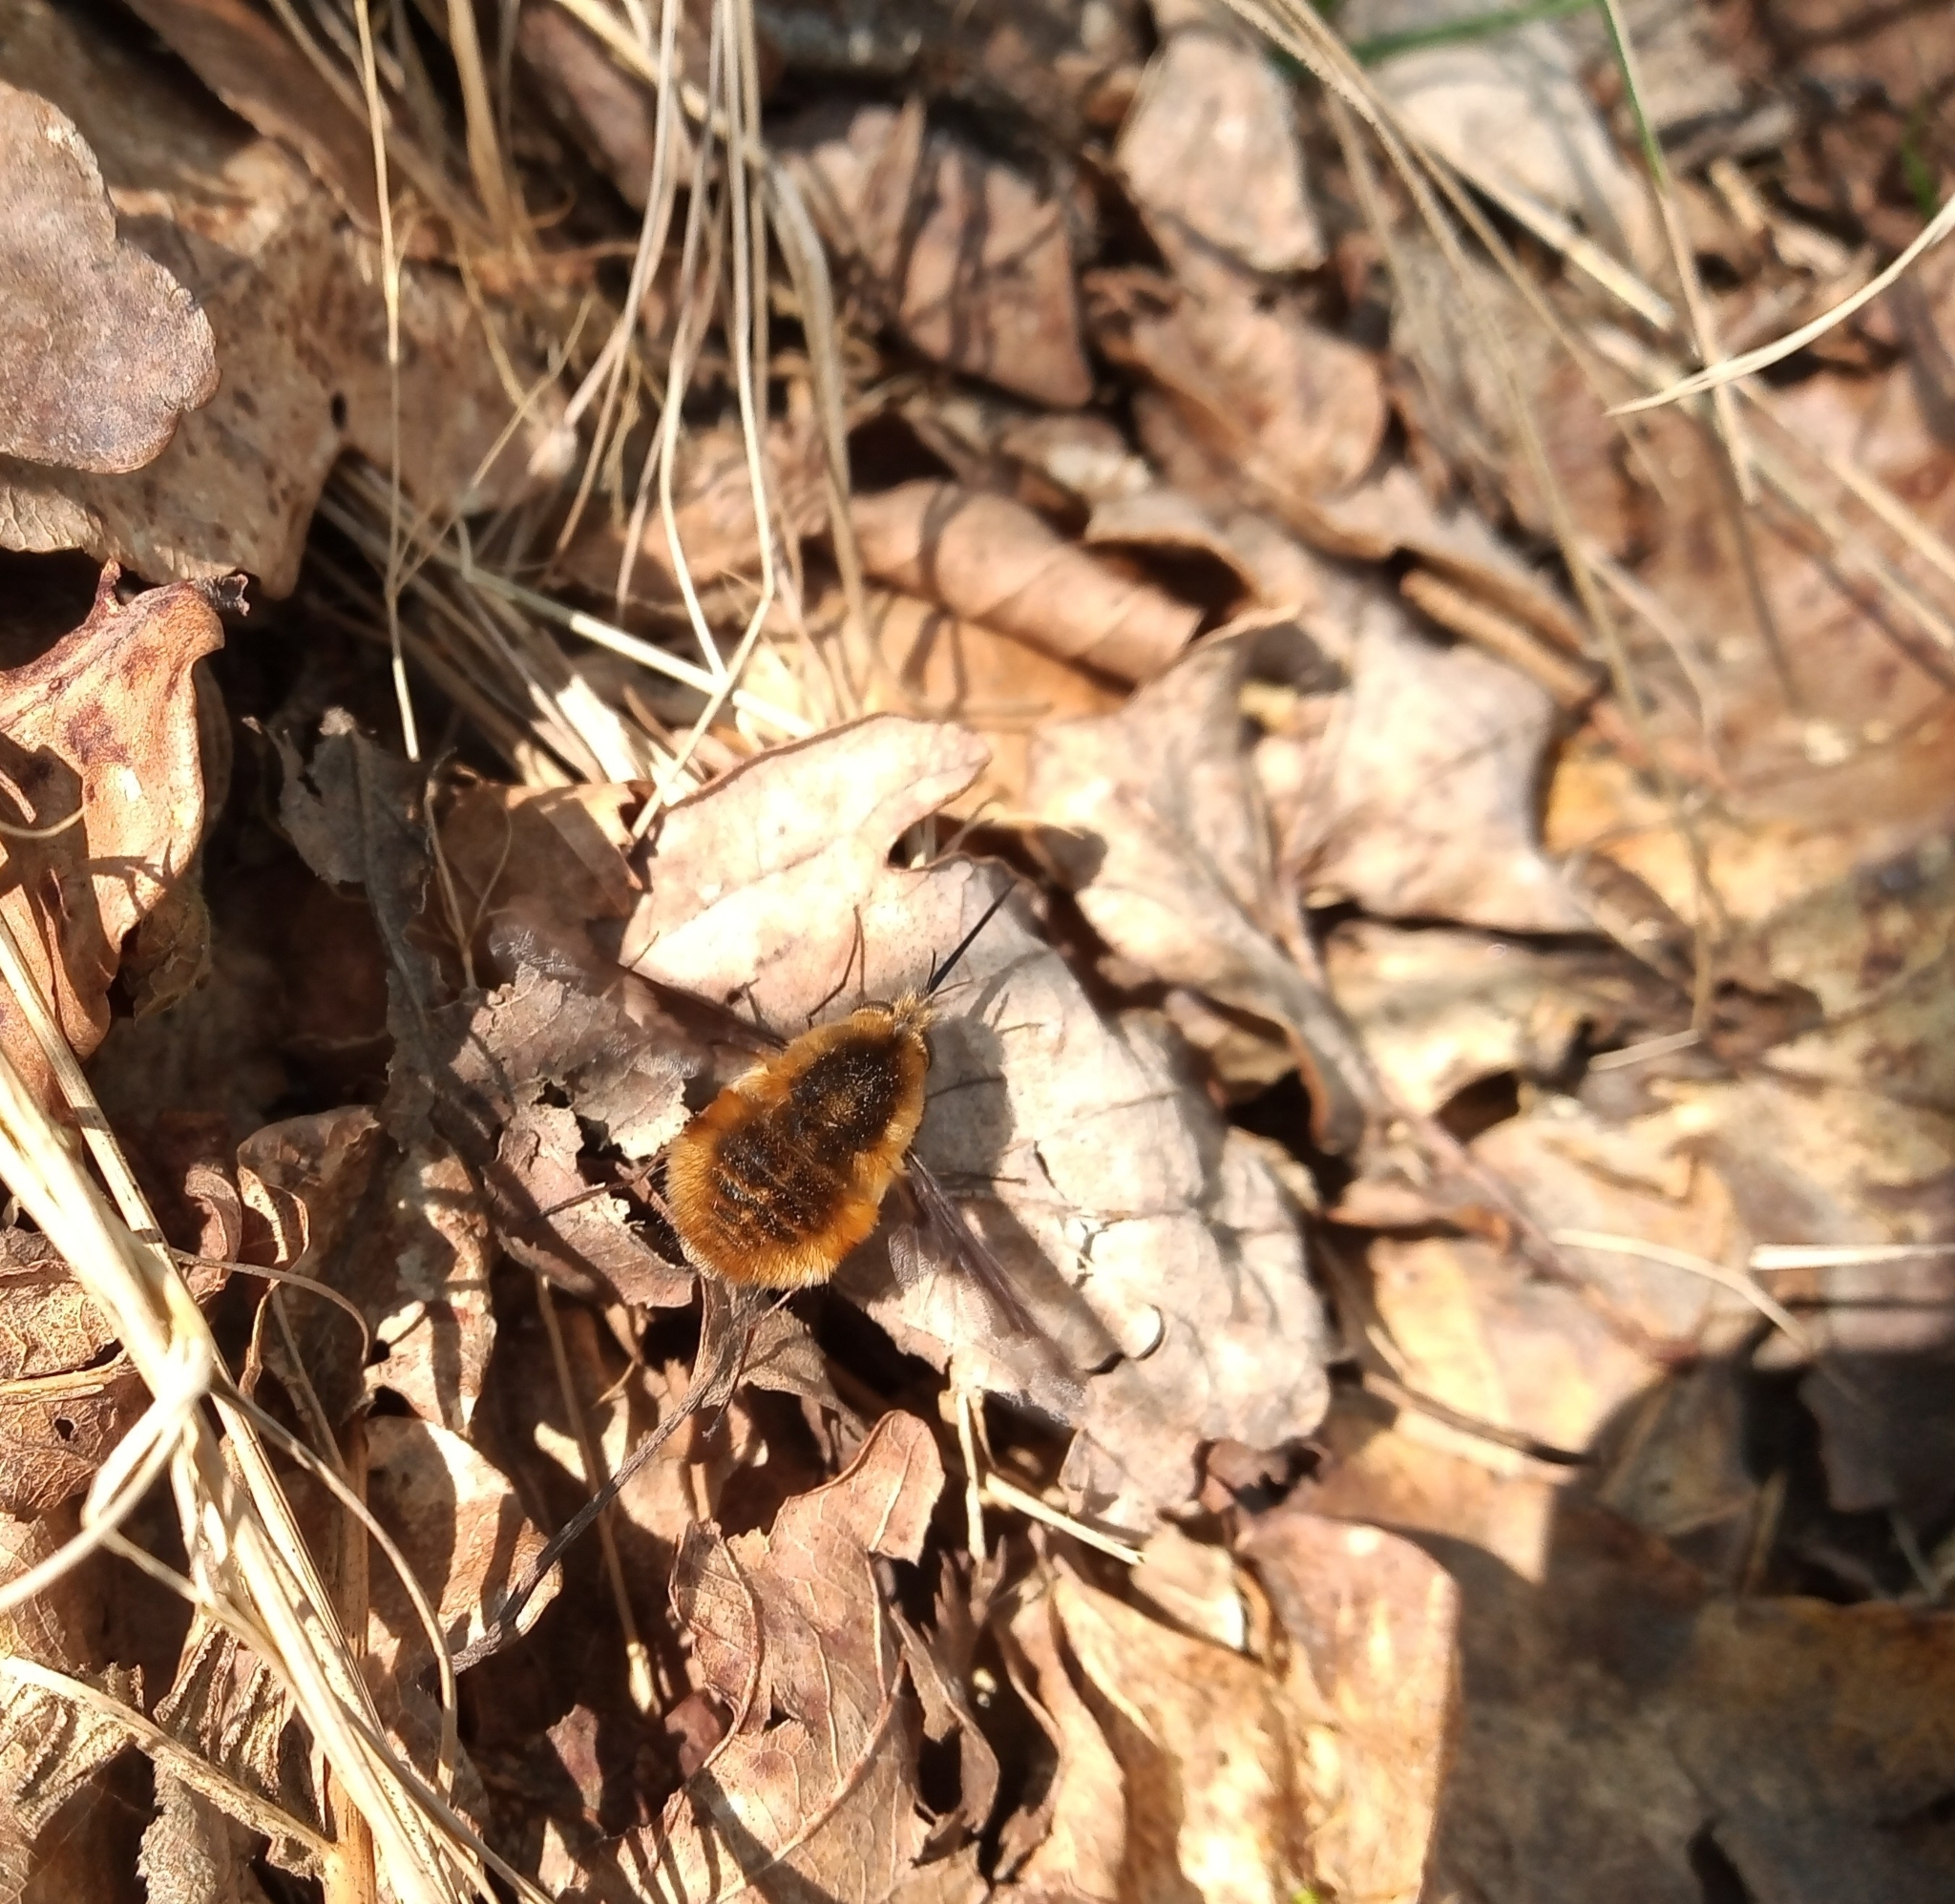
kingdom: Animalia
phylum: Arthropoda
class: Insecta
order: Diptera
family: Bombyliidae
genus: Bombylius
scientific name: Bombylius major
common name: Bee fly
